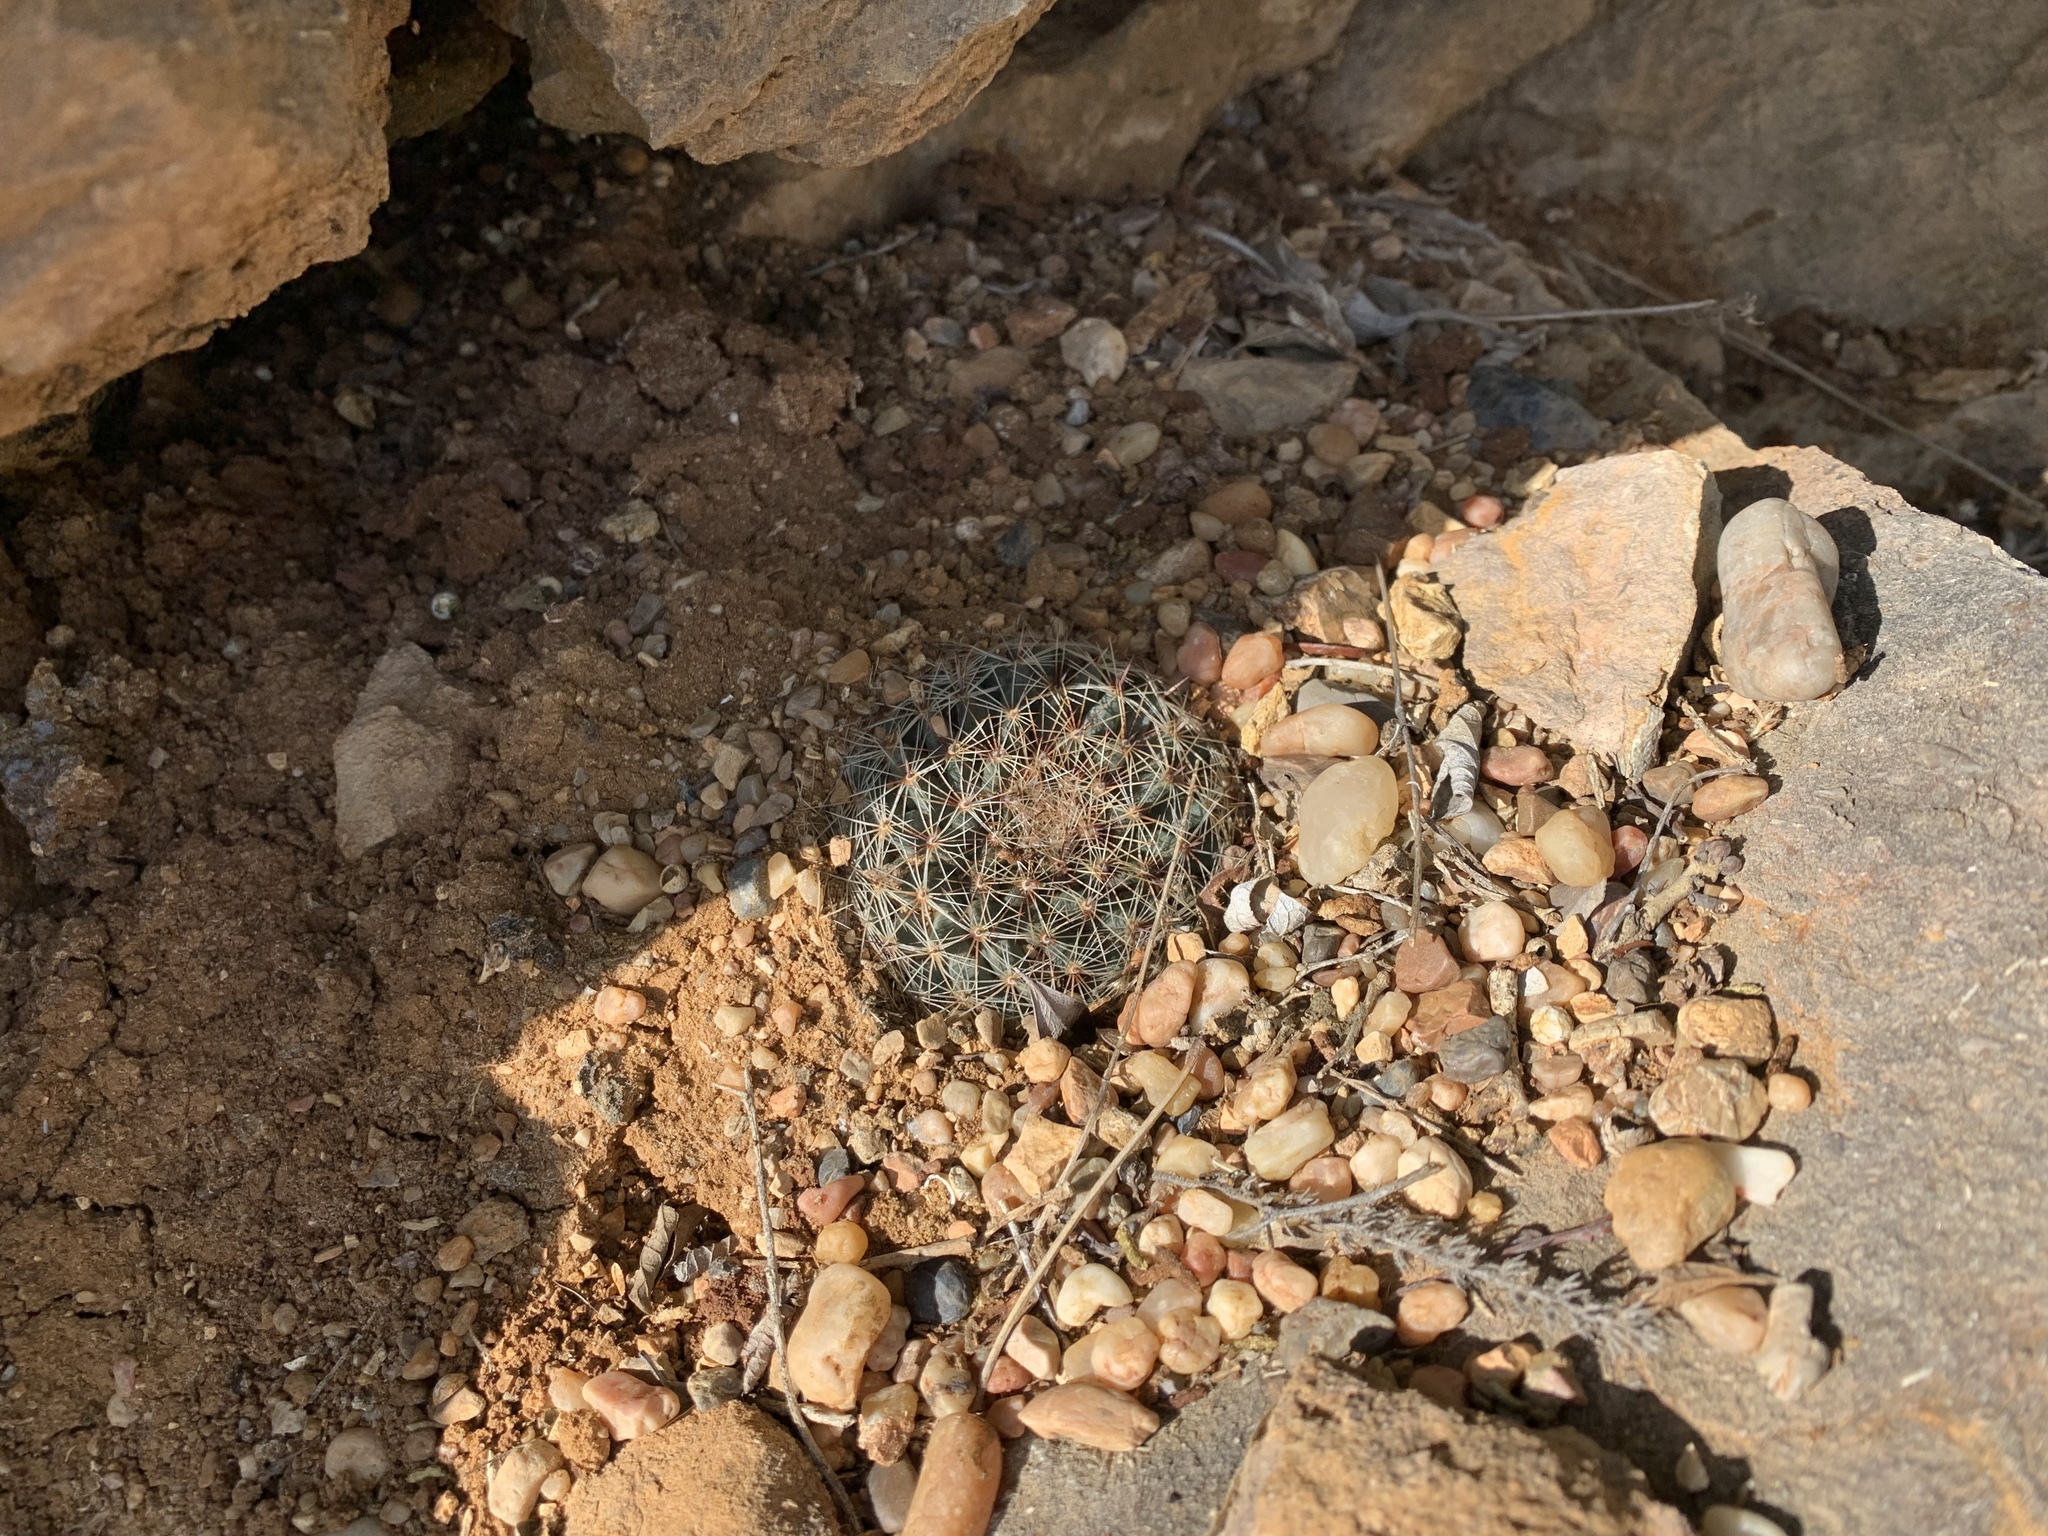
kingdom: Plantae
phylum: Tracheophyta
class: Magnoliopsida
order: Caryophyllales
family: Cactaceae
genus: Mammillaria
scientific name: Mammillaria heyderi
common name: Little nipple cactus
